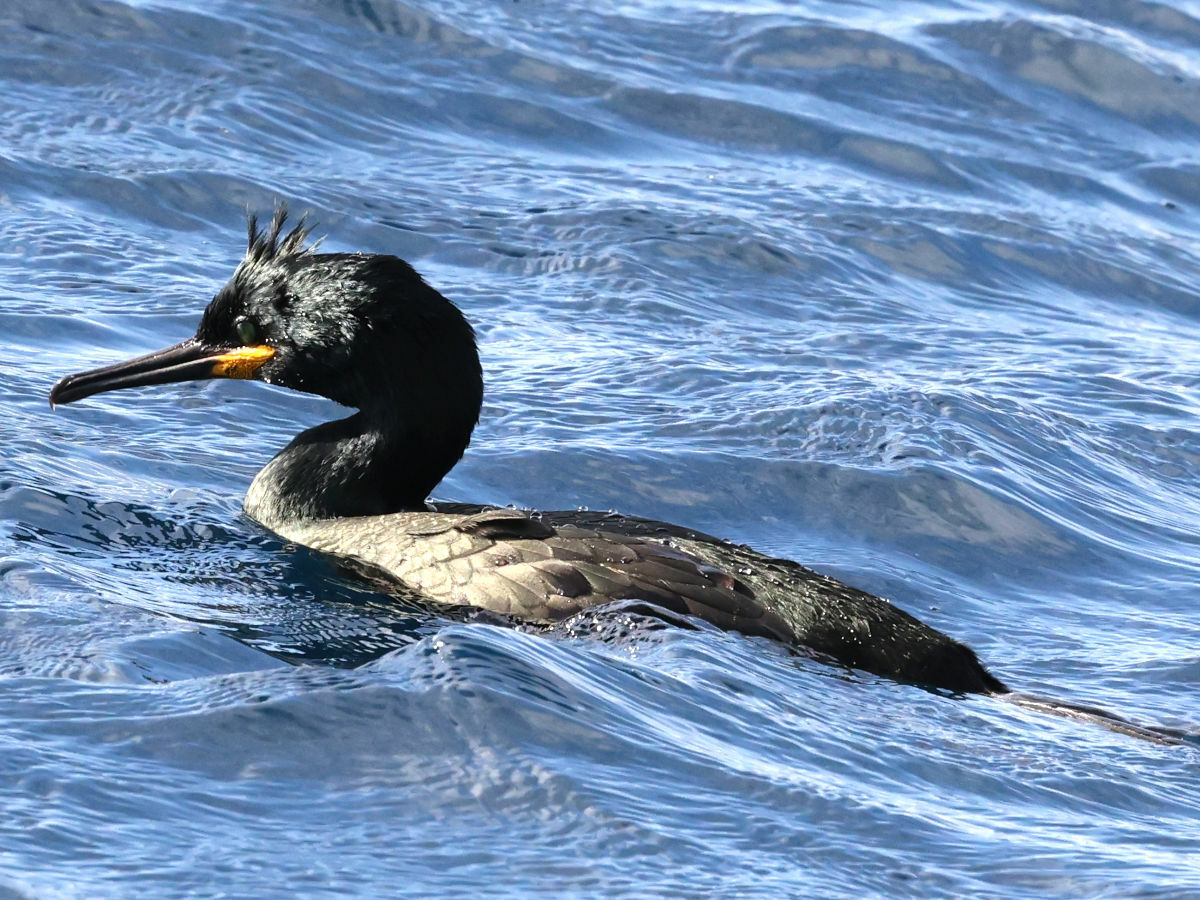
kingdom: Animalia
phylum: Chordata
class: Aves
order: Suliformes
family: Phalacrocoracidae
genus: Phalacrocorax
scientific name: Phalacrocorax aristotelis
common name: European shag
